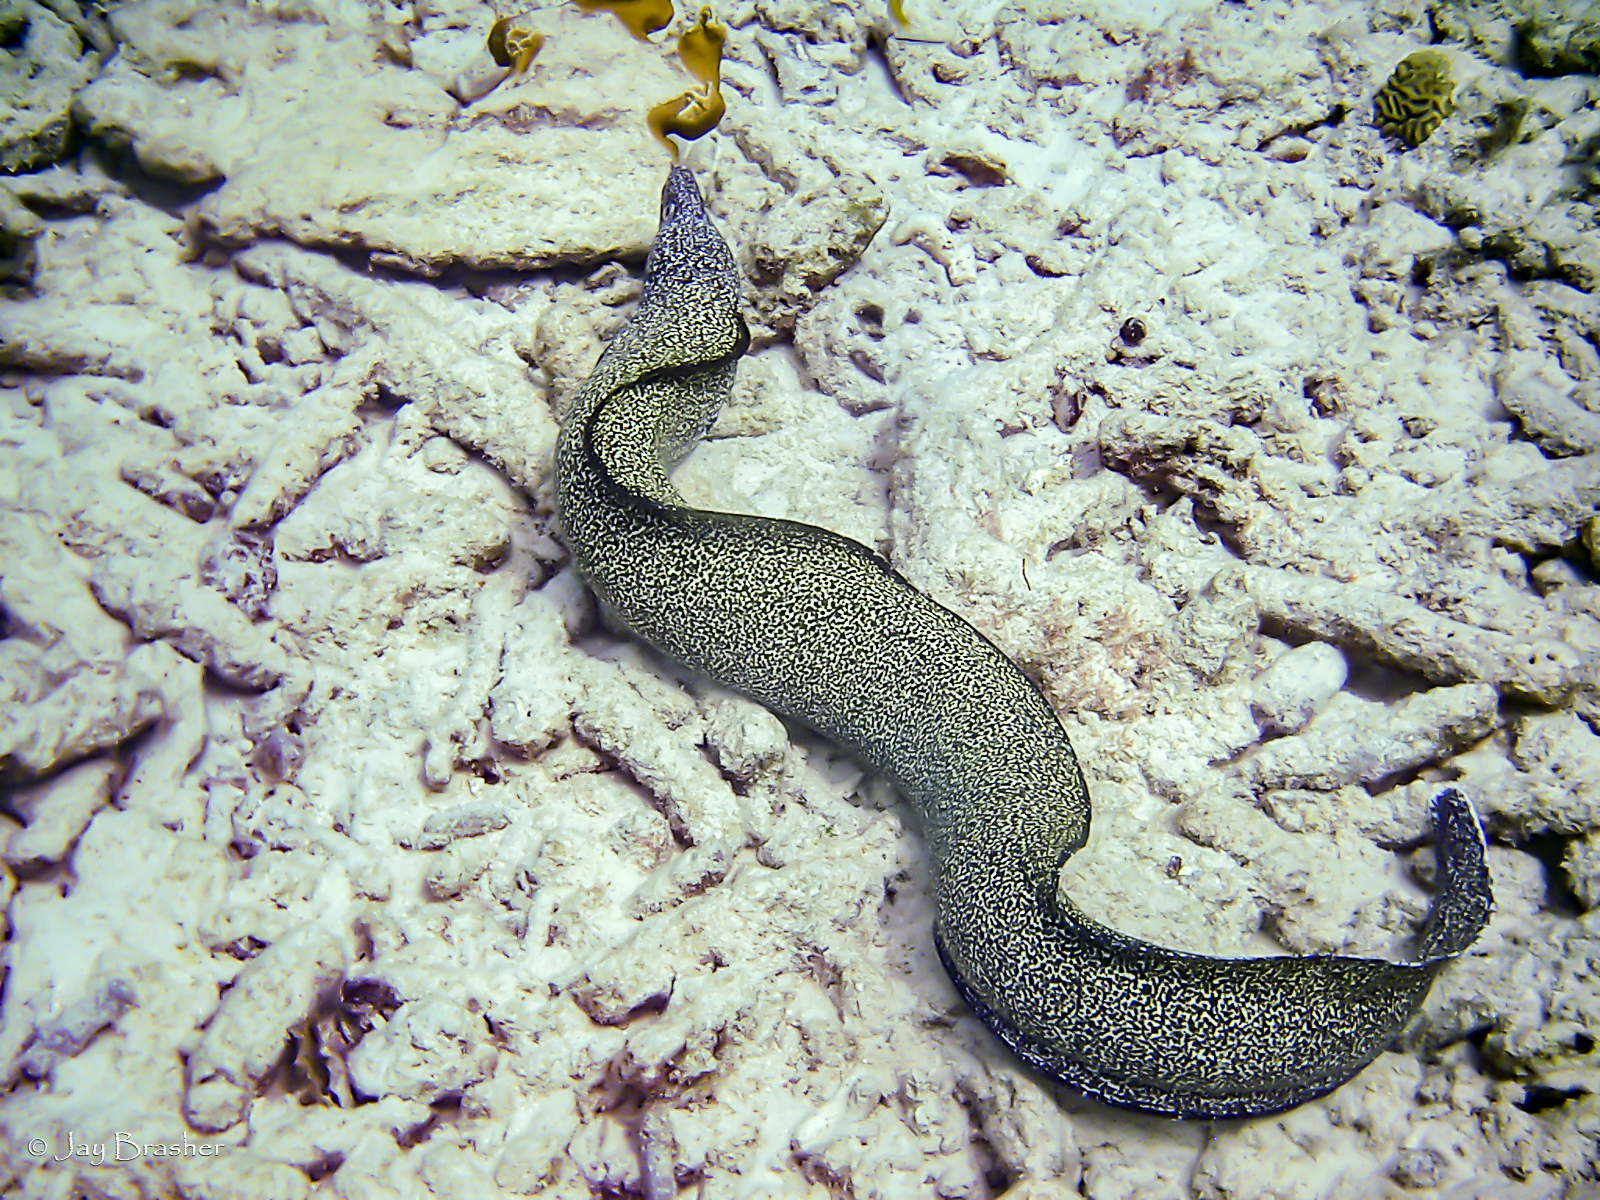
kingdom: Animalia
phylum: Chordata
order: Anguilliformes
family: Muraenidae
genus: Gymnothorax
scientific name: Gymnothorax moringa
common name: Spotted moray
